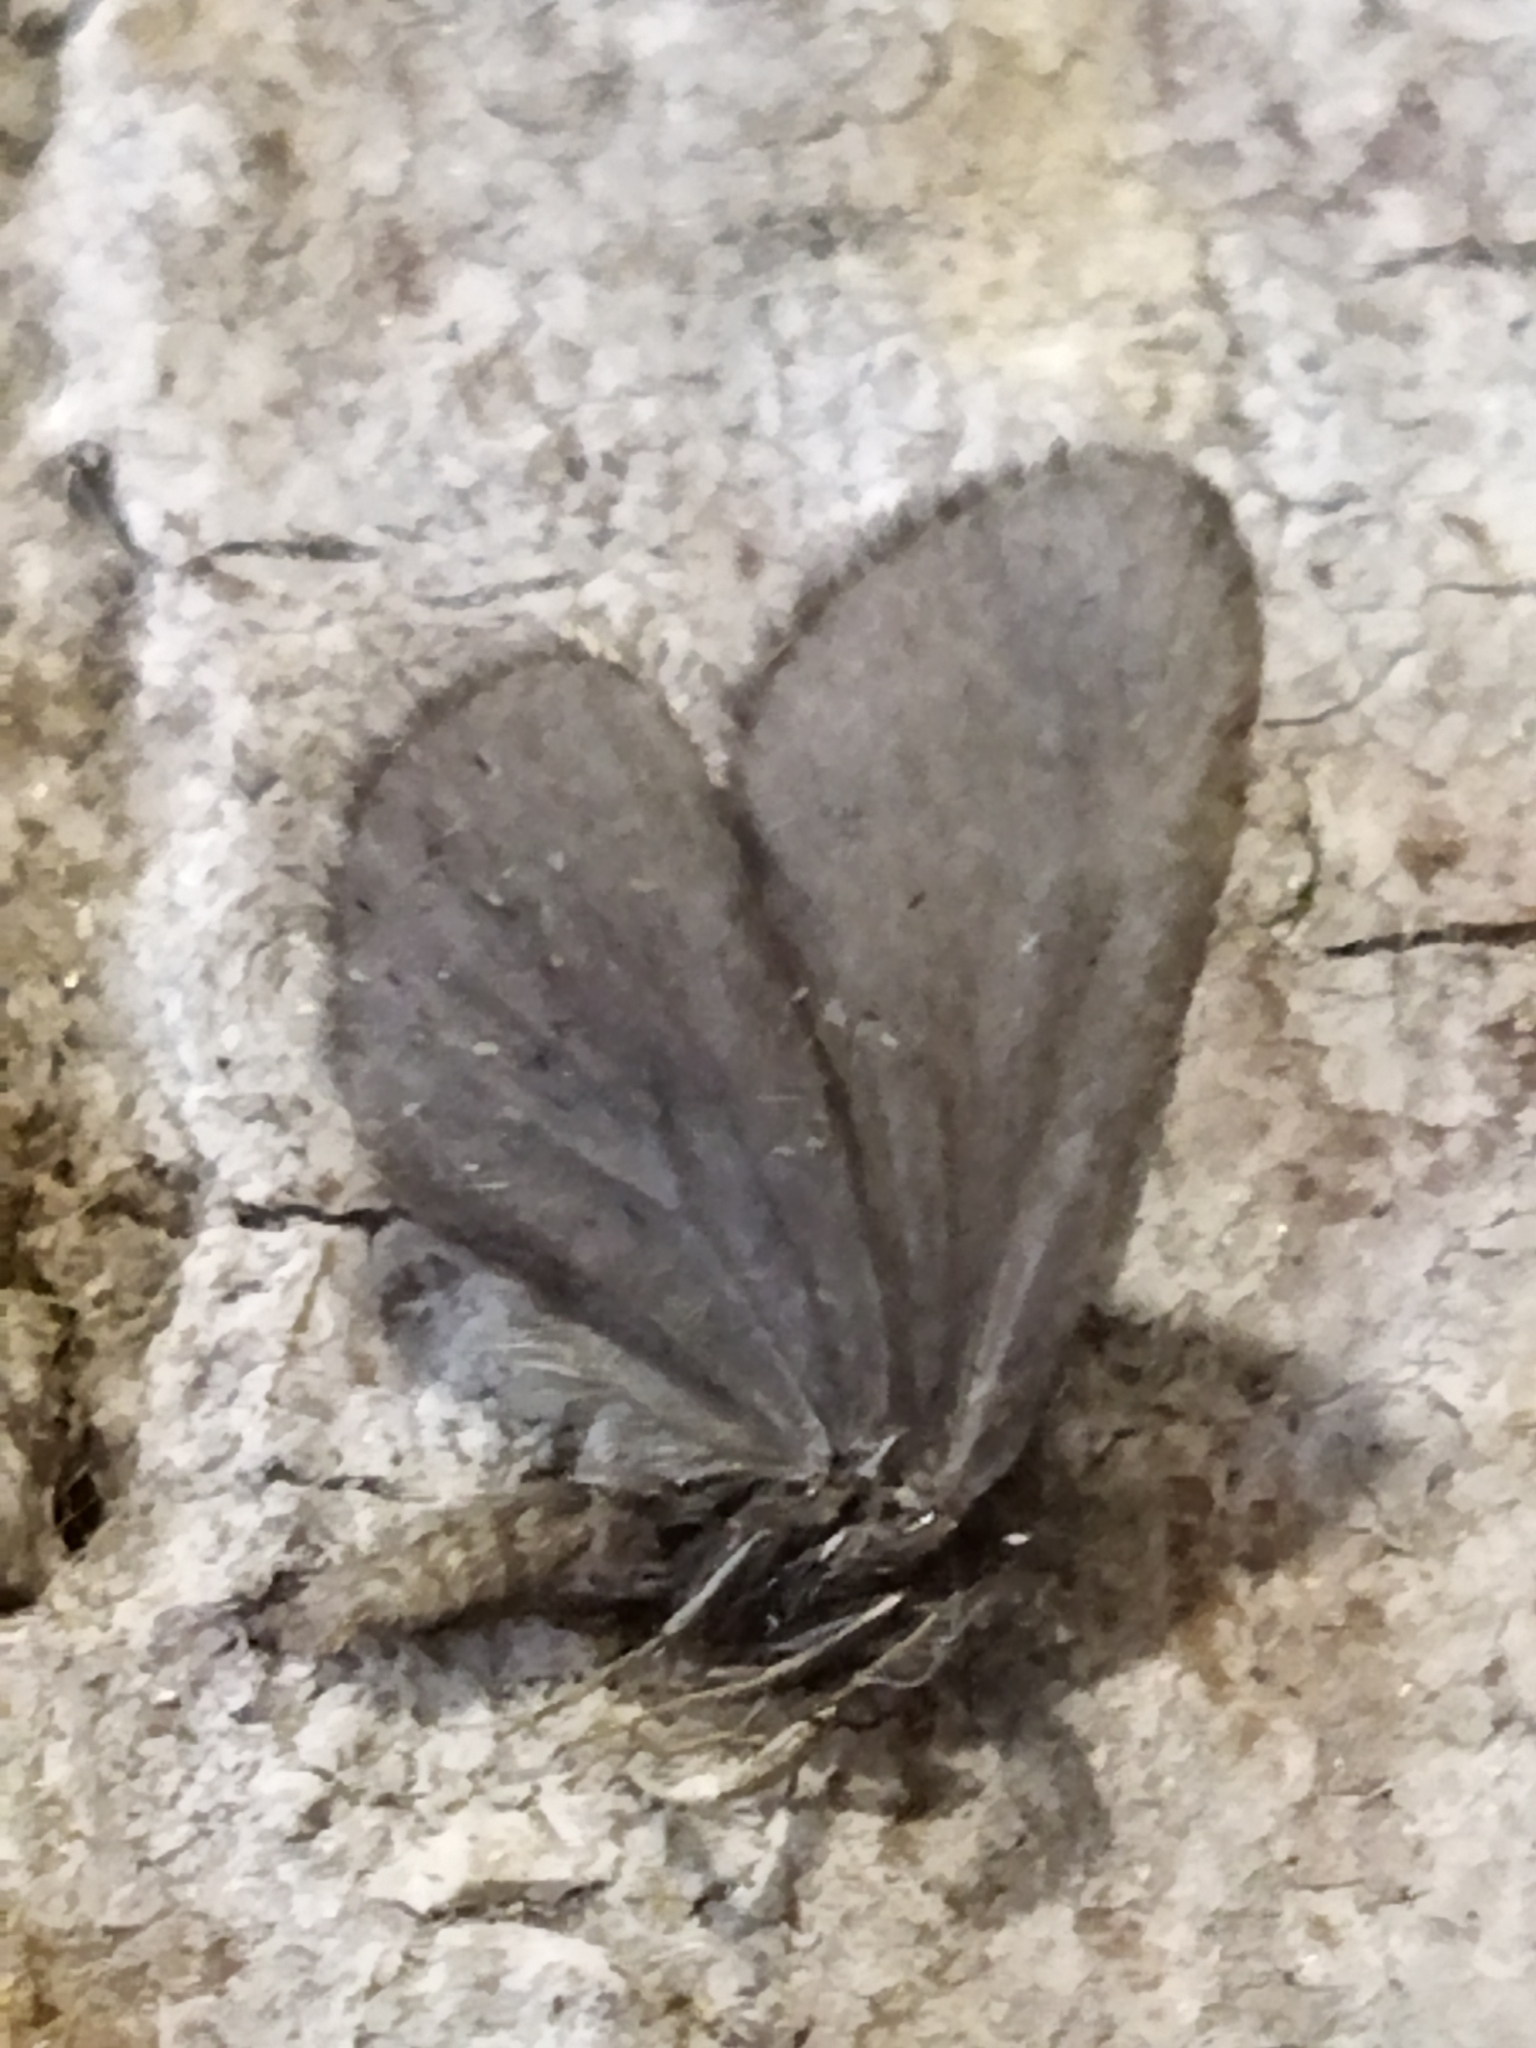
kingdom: Animalia
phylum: Arthropoda
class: Insecta
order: Lepidoptera
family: Psychidae
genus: Rebelia
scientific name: Rebelia perlucidella
